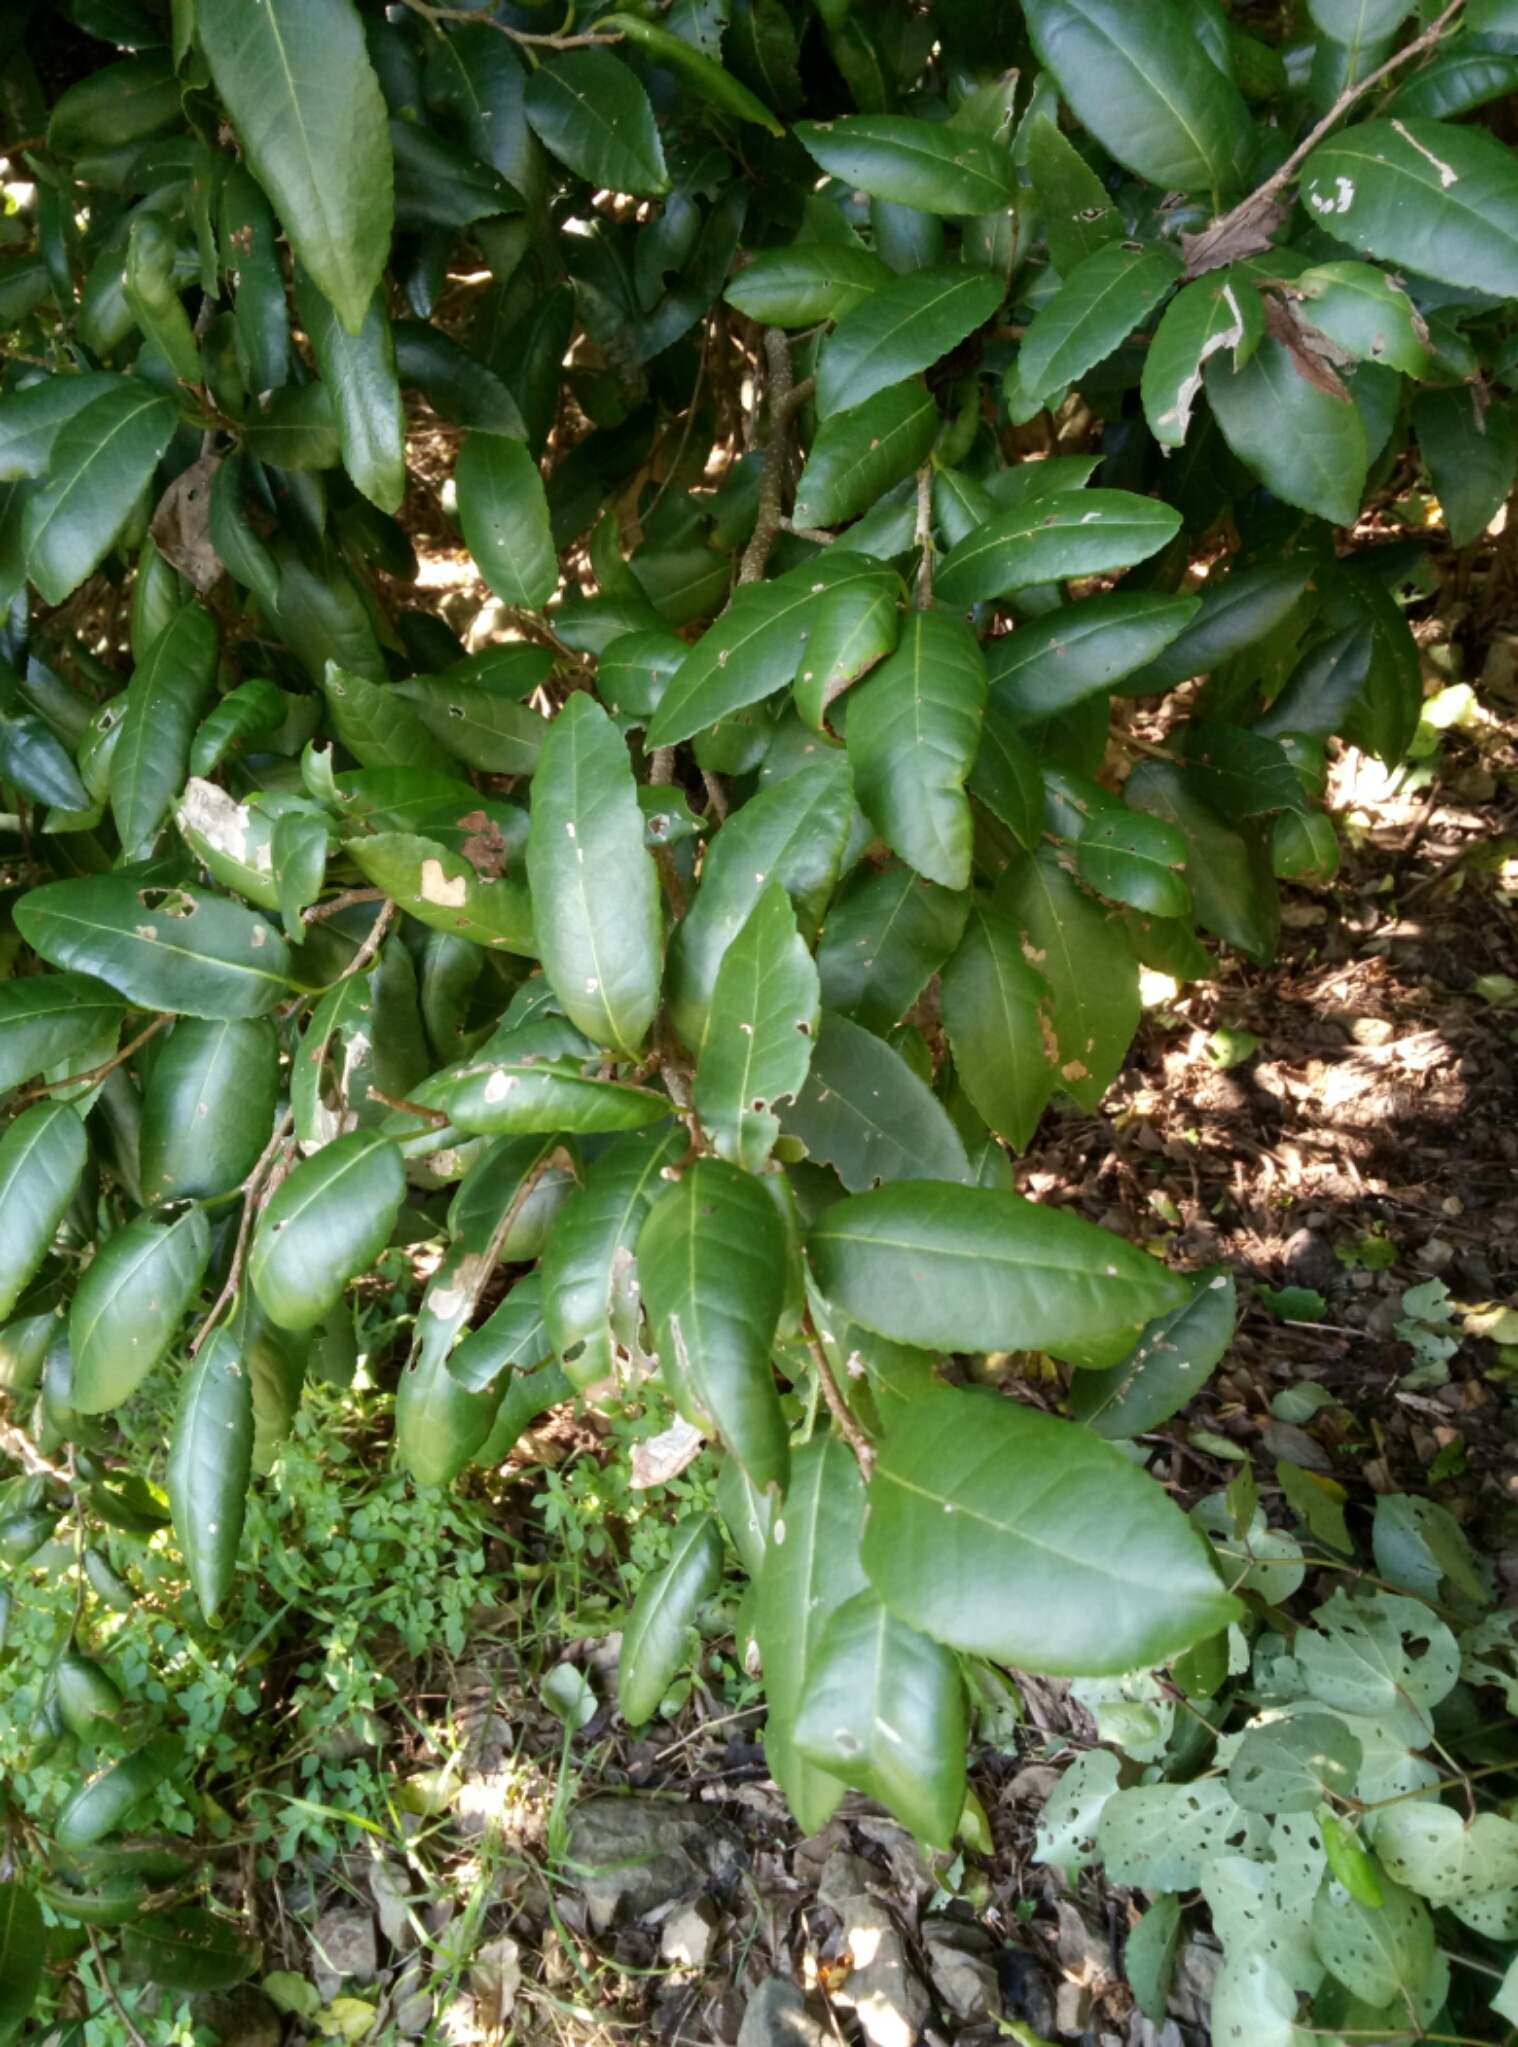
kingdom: Plantae
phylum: Tracheophyta
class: Magnoliopsida
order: Rosales
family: Moraceae
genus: Paratrophis
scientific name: Paratrophis banksii
